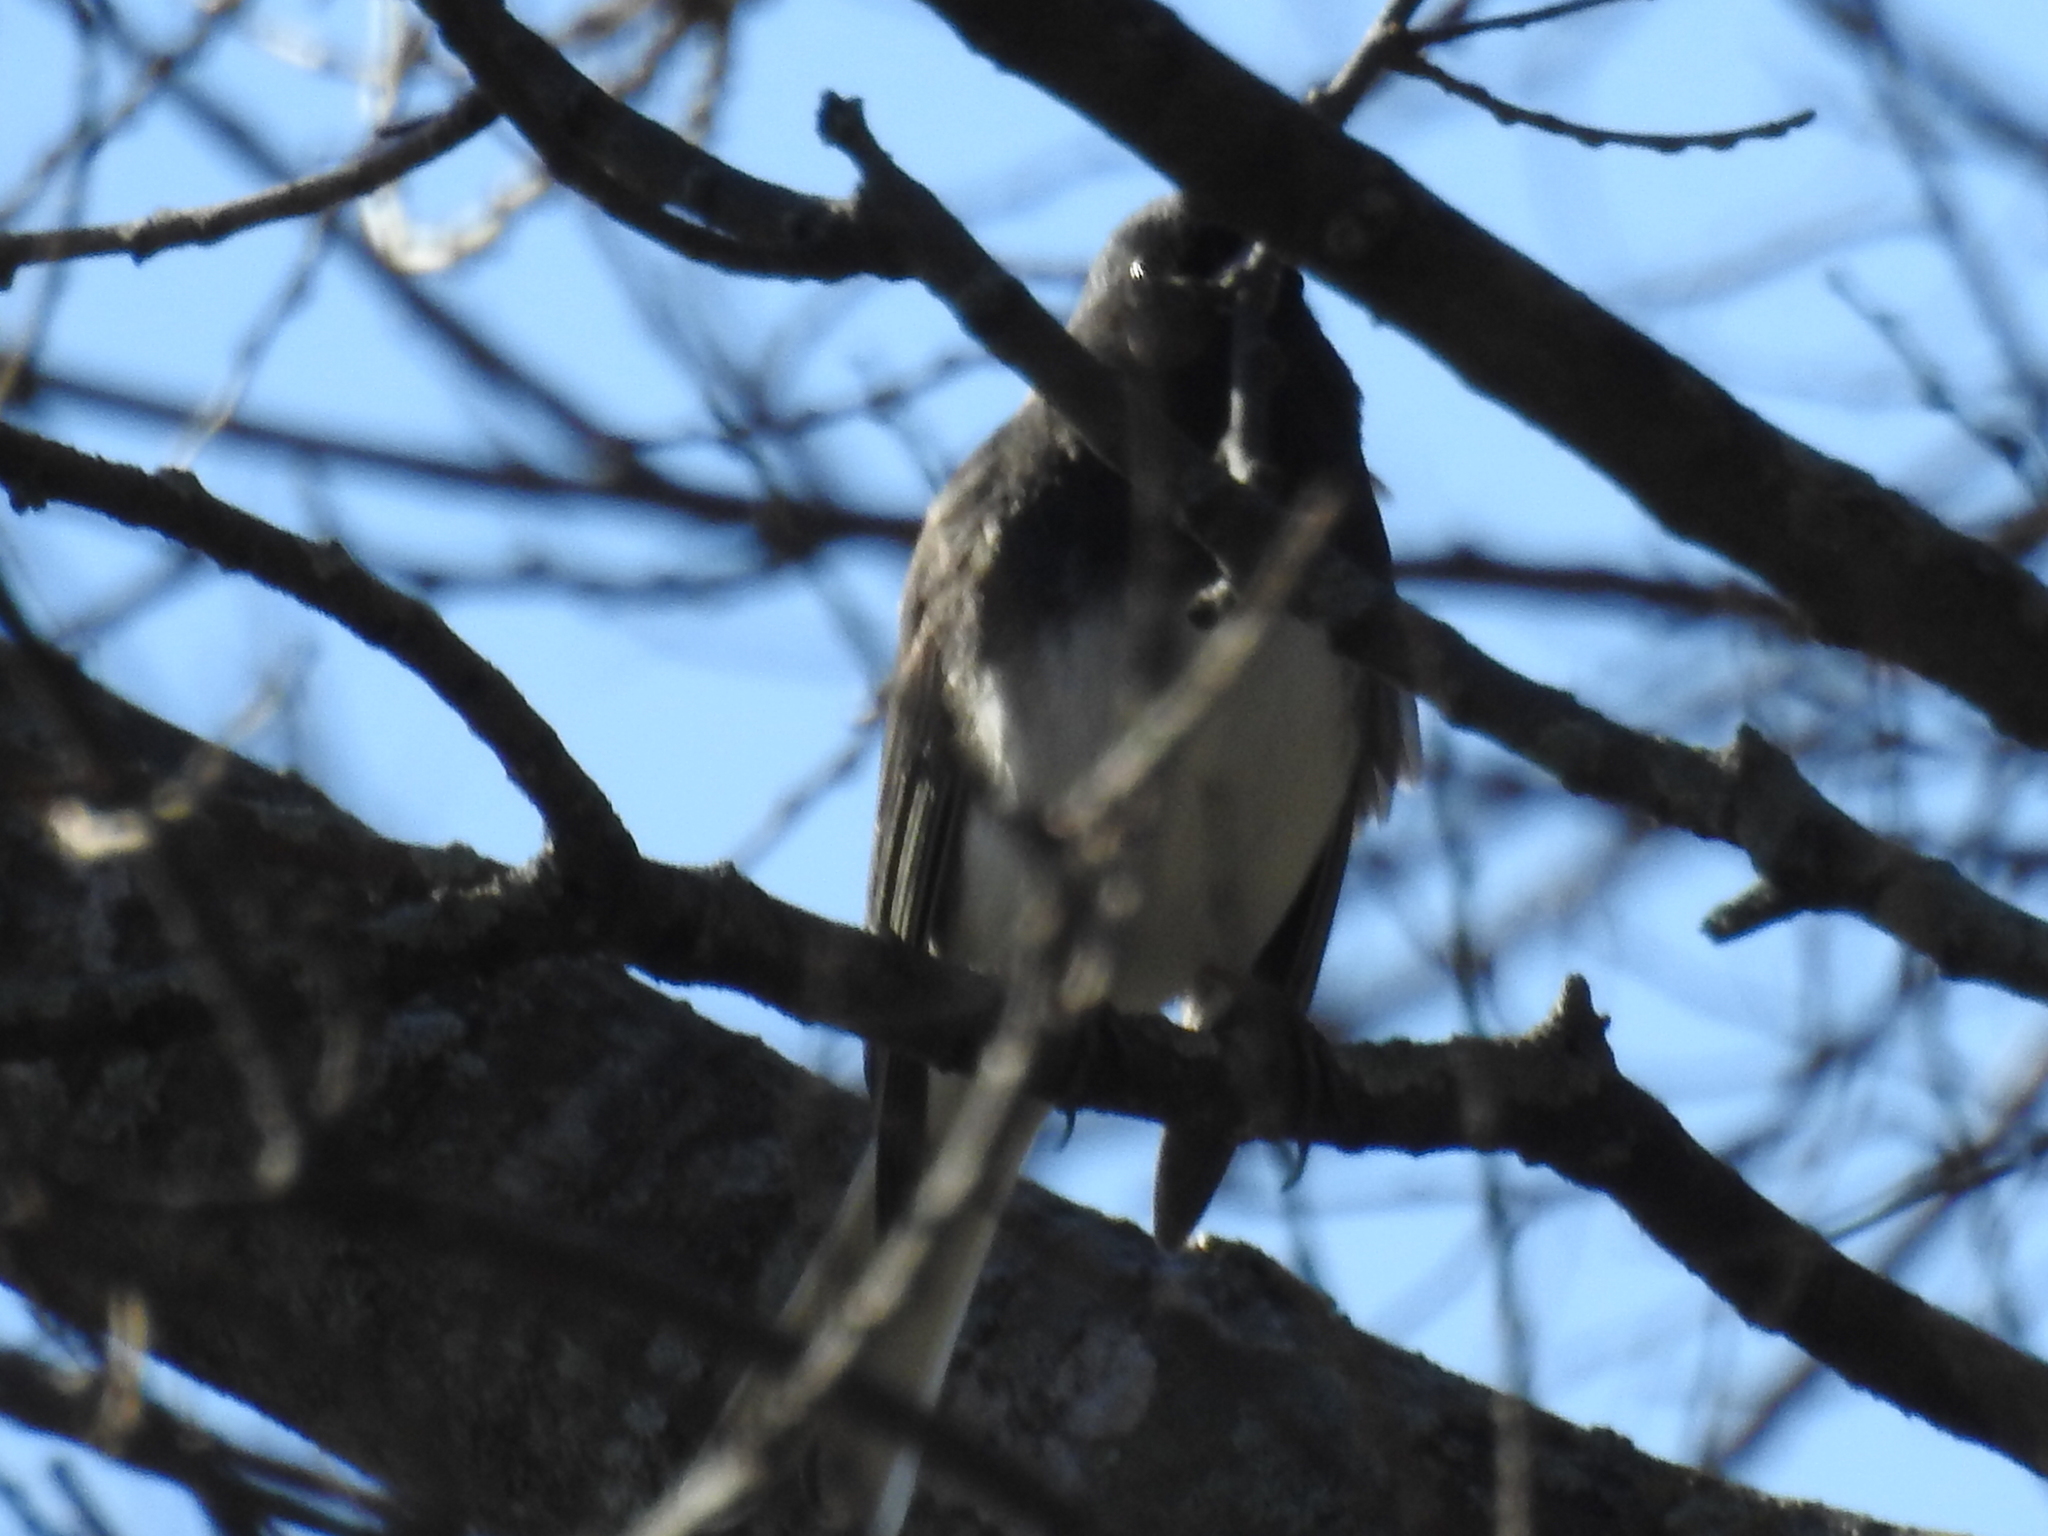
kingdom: Animalia
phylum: Chordata
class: Aves
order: Passeriformes
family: Passerellidae
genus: Junco
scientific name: Junco hyemalis
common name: Dark-eyed junco
